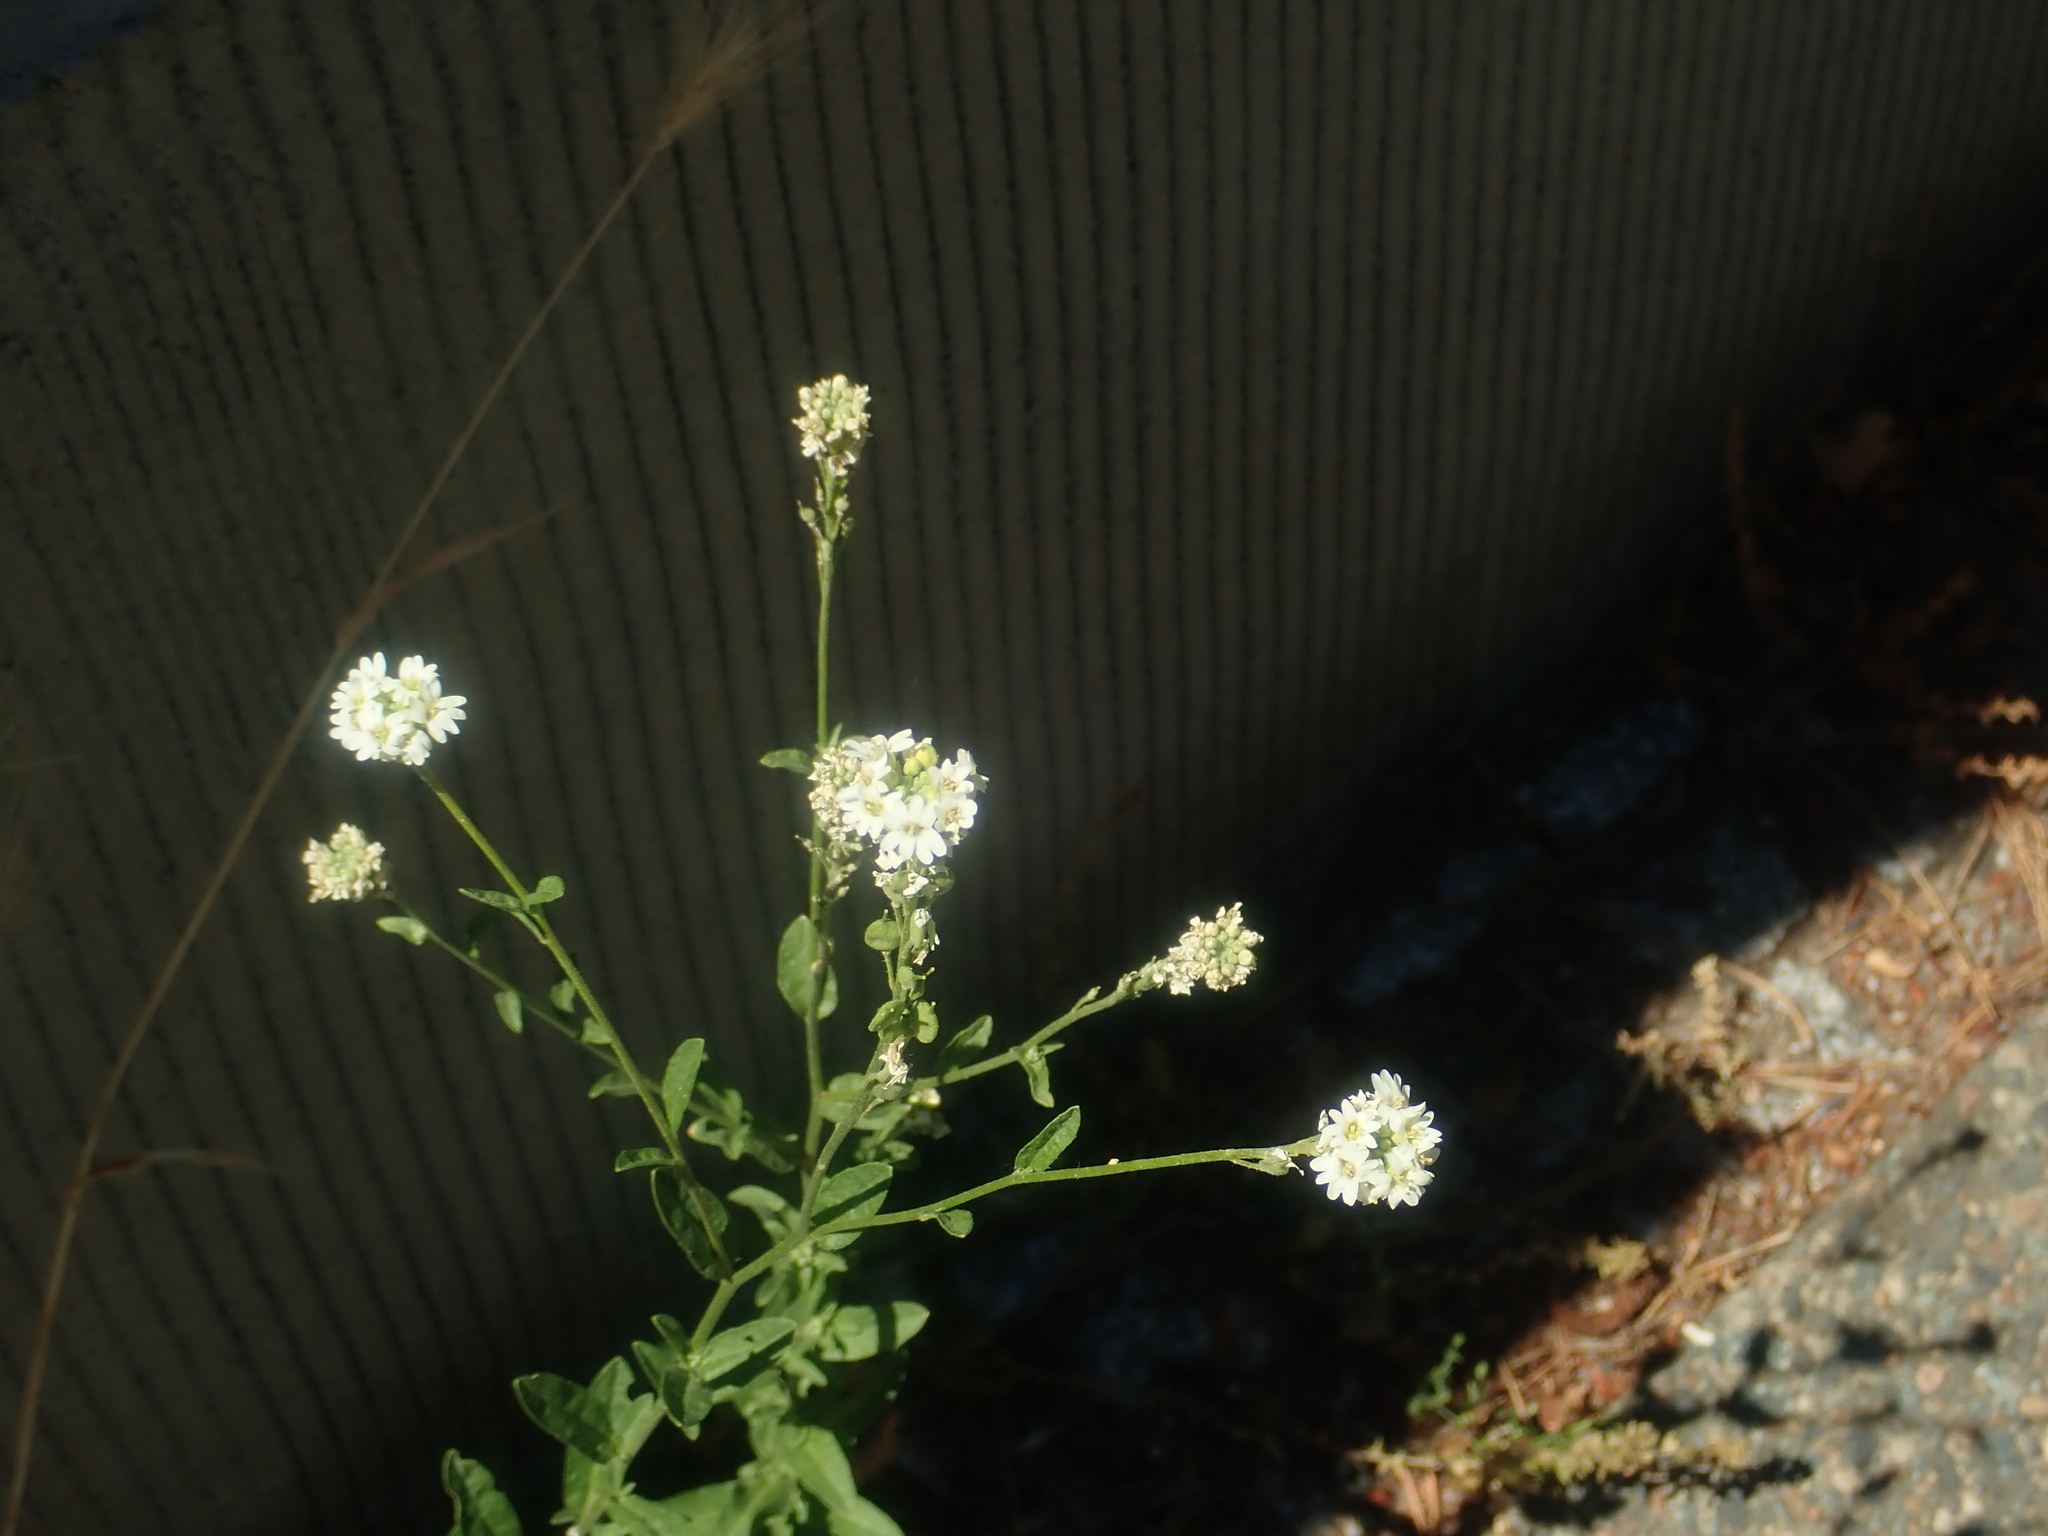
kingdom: Plantae
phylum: Tracheophyta
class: Magnoliopsida
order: Brassicales
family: Brassicaceae
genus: Berteroa
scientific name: Berteroa incana
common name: Hoary alison
